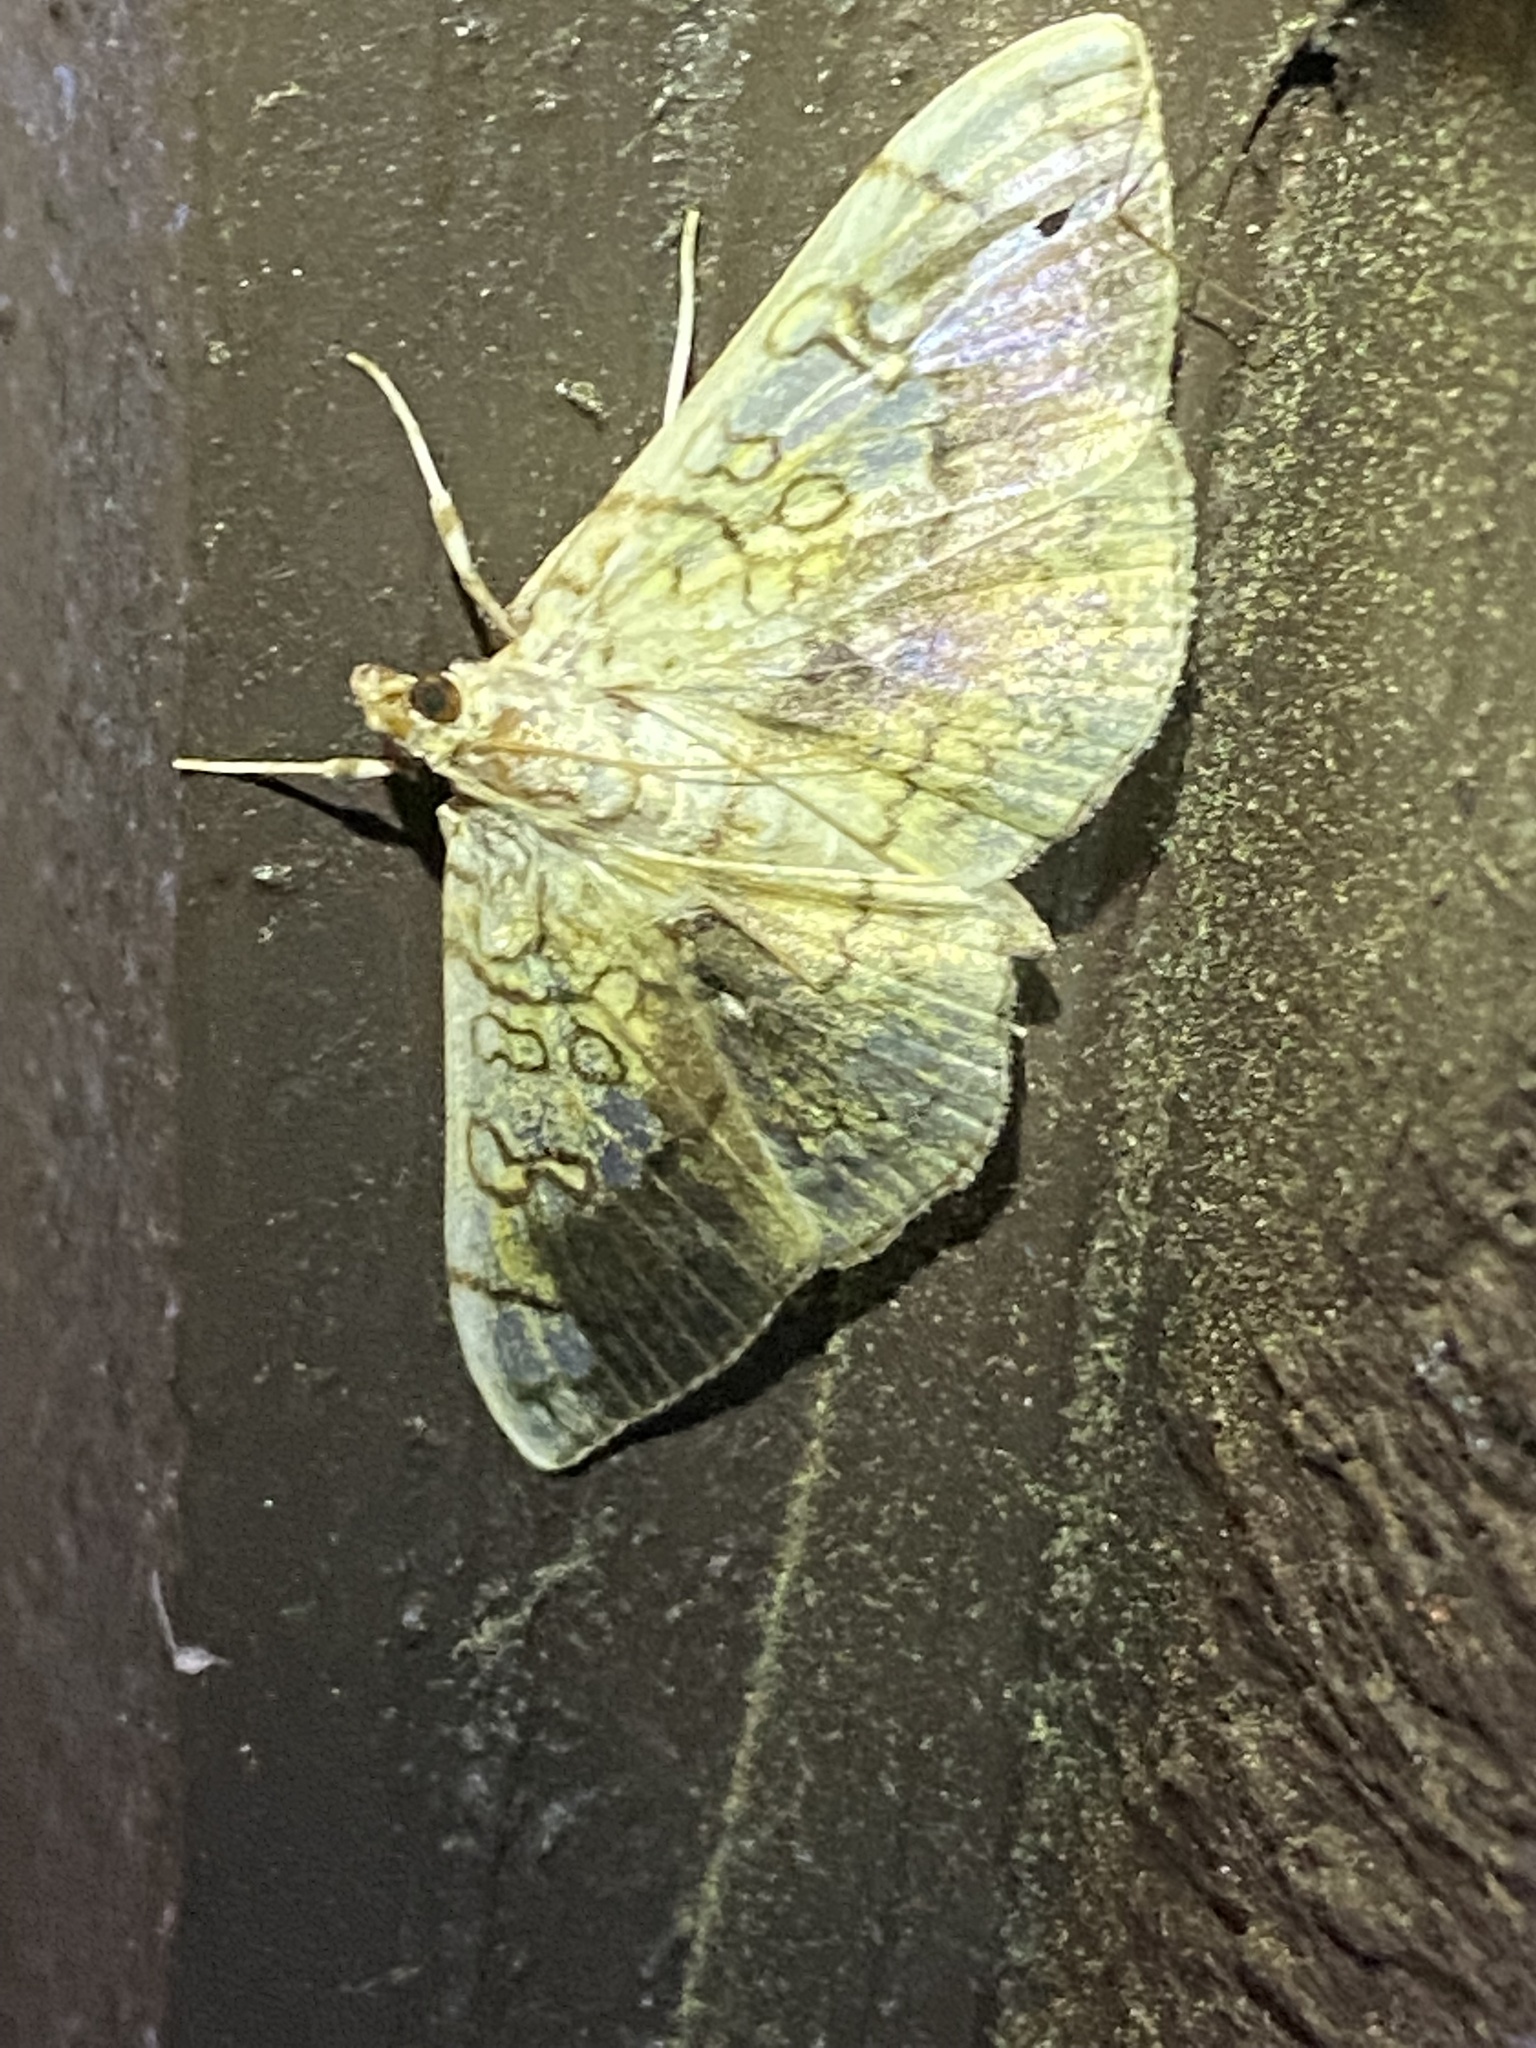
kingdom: Animalia
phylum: Arthropoda
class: Insecta
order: Lepidoptera
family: Crambidae
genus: Pantographa
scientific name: Pantographa limata
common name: Basswood leafroller moth
